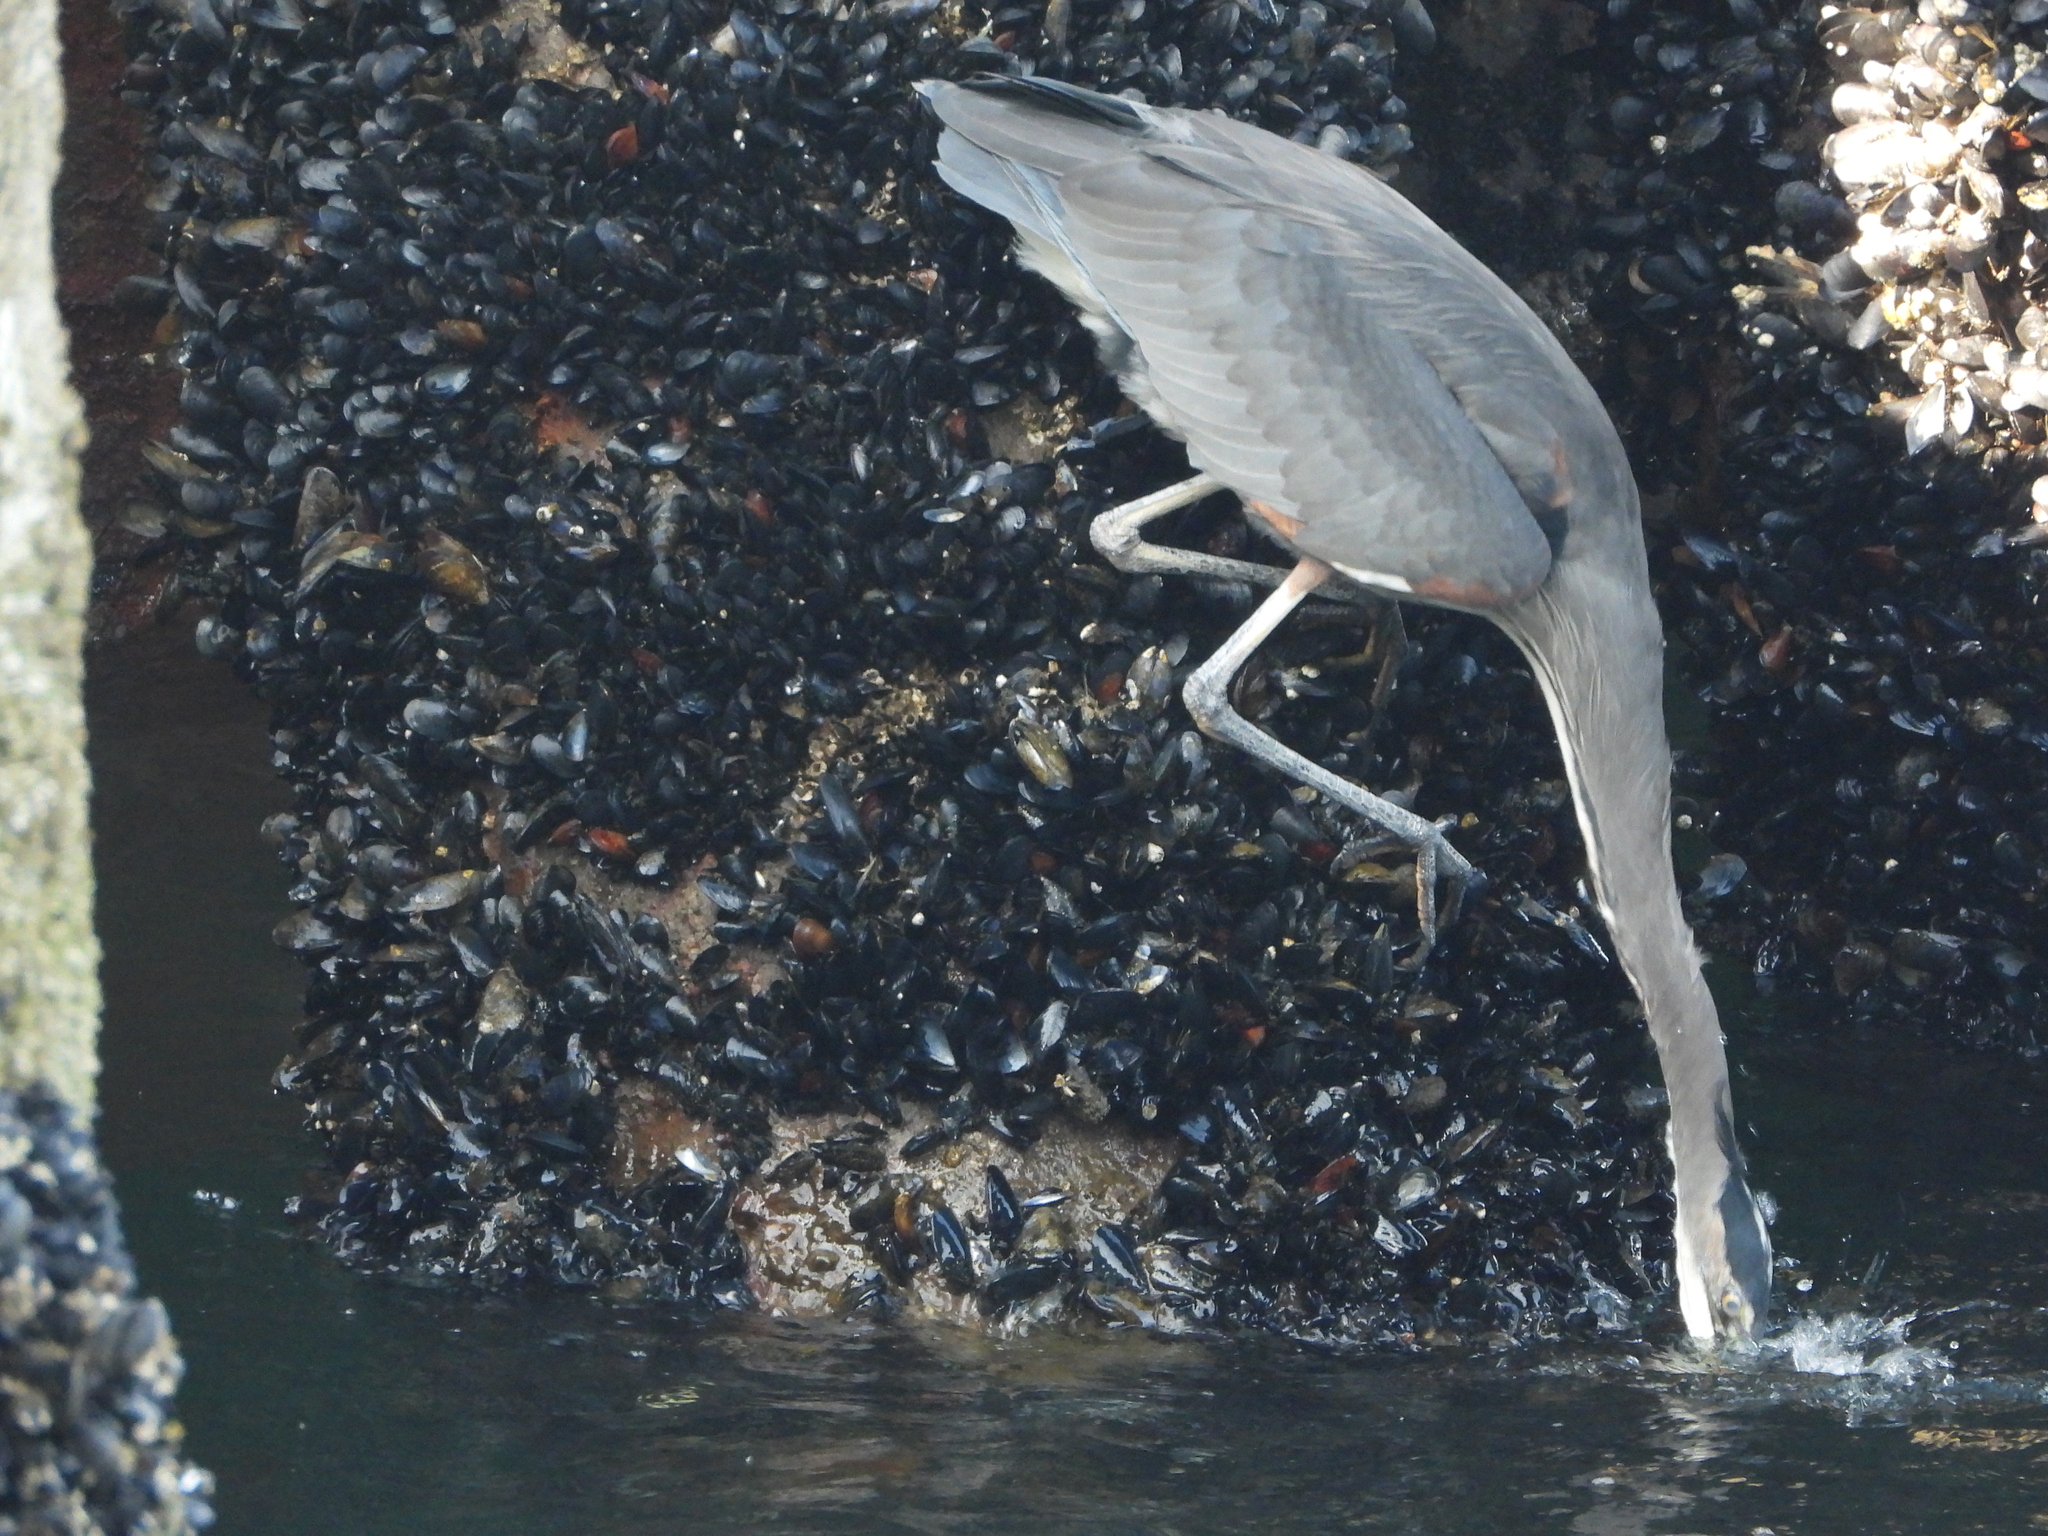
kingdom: Animalia
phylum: Chordata
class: Aves
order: Pelecaniformes
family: Ardeidae
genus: Ardea
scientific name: Ardea herodias
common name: Great blue heron
